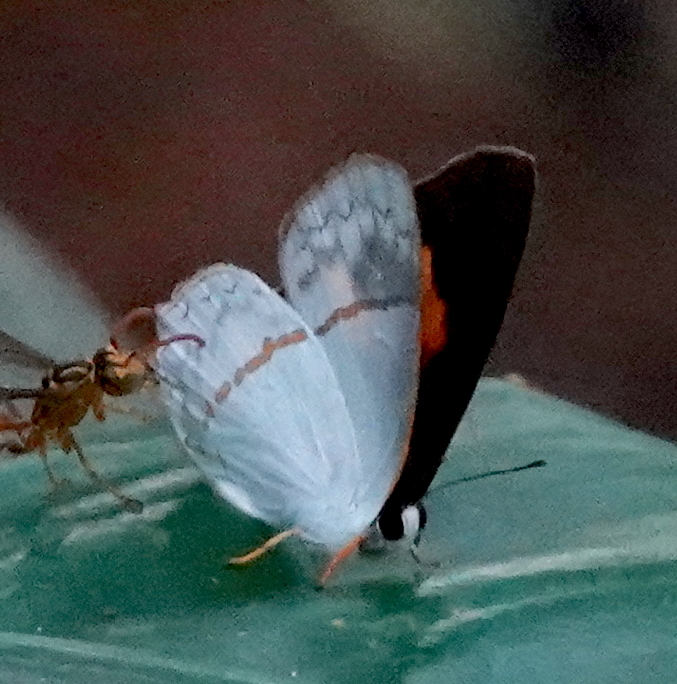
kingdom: Animalia
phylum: Arthropoda
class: Insecta
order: Lepidoptera
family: Lycaenidae
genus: Euselasia
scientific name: Euselasia
